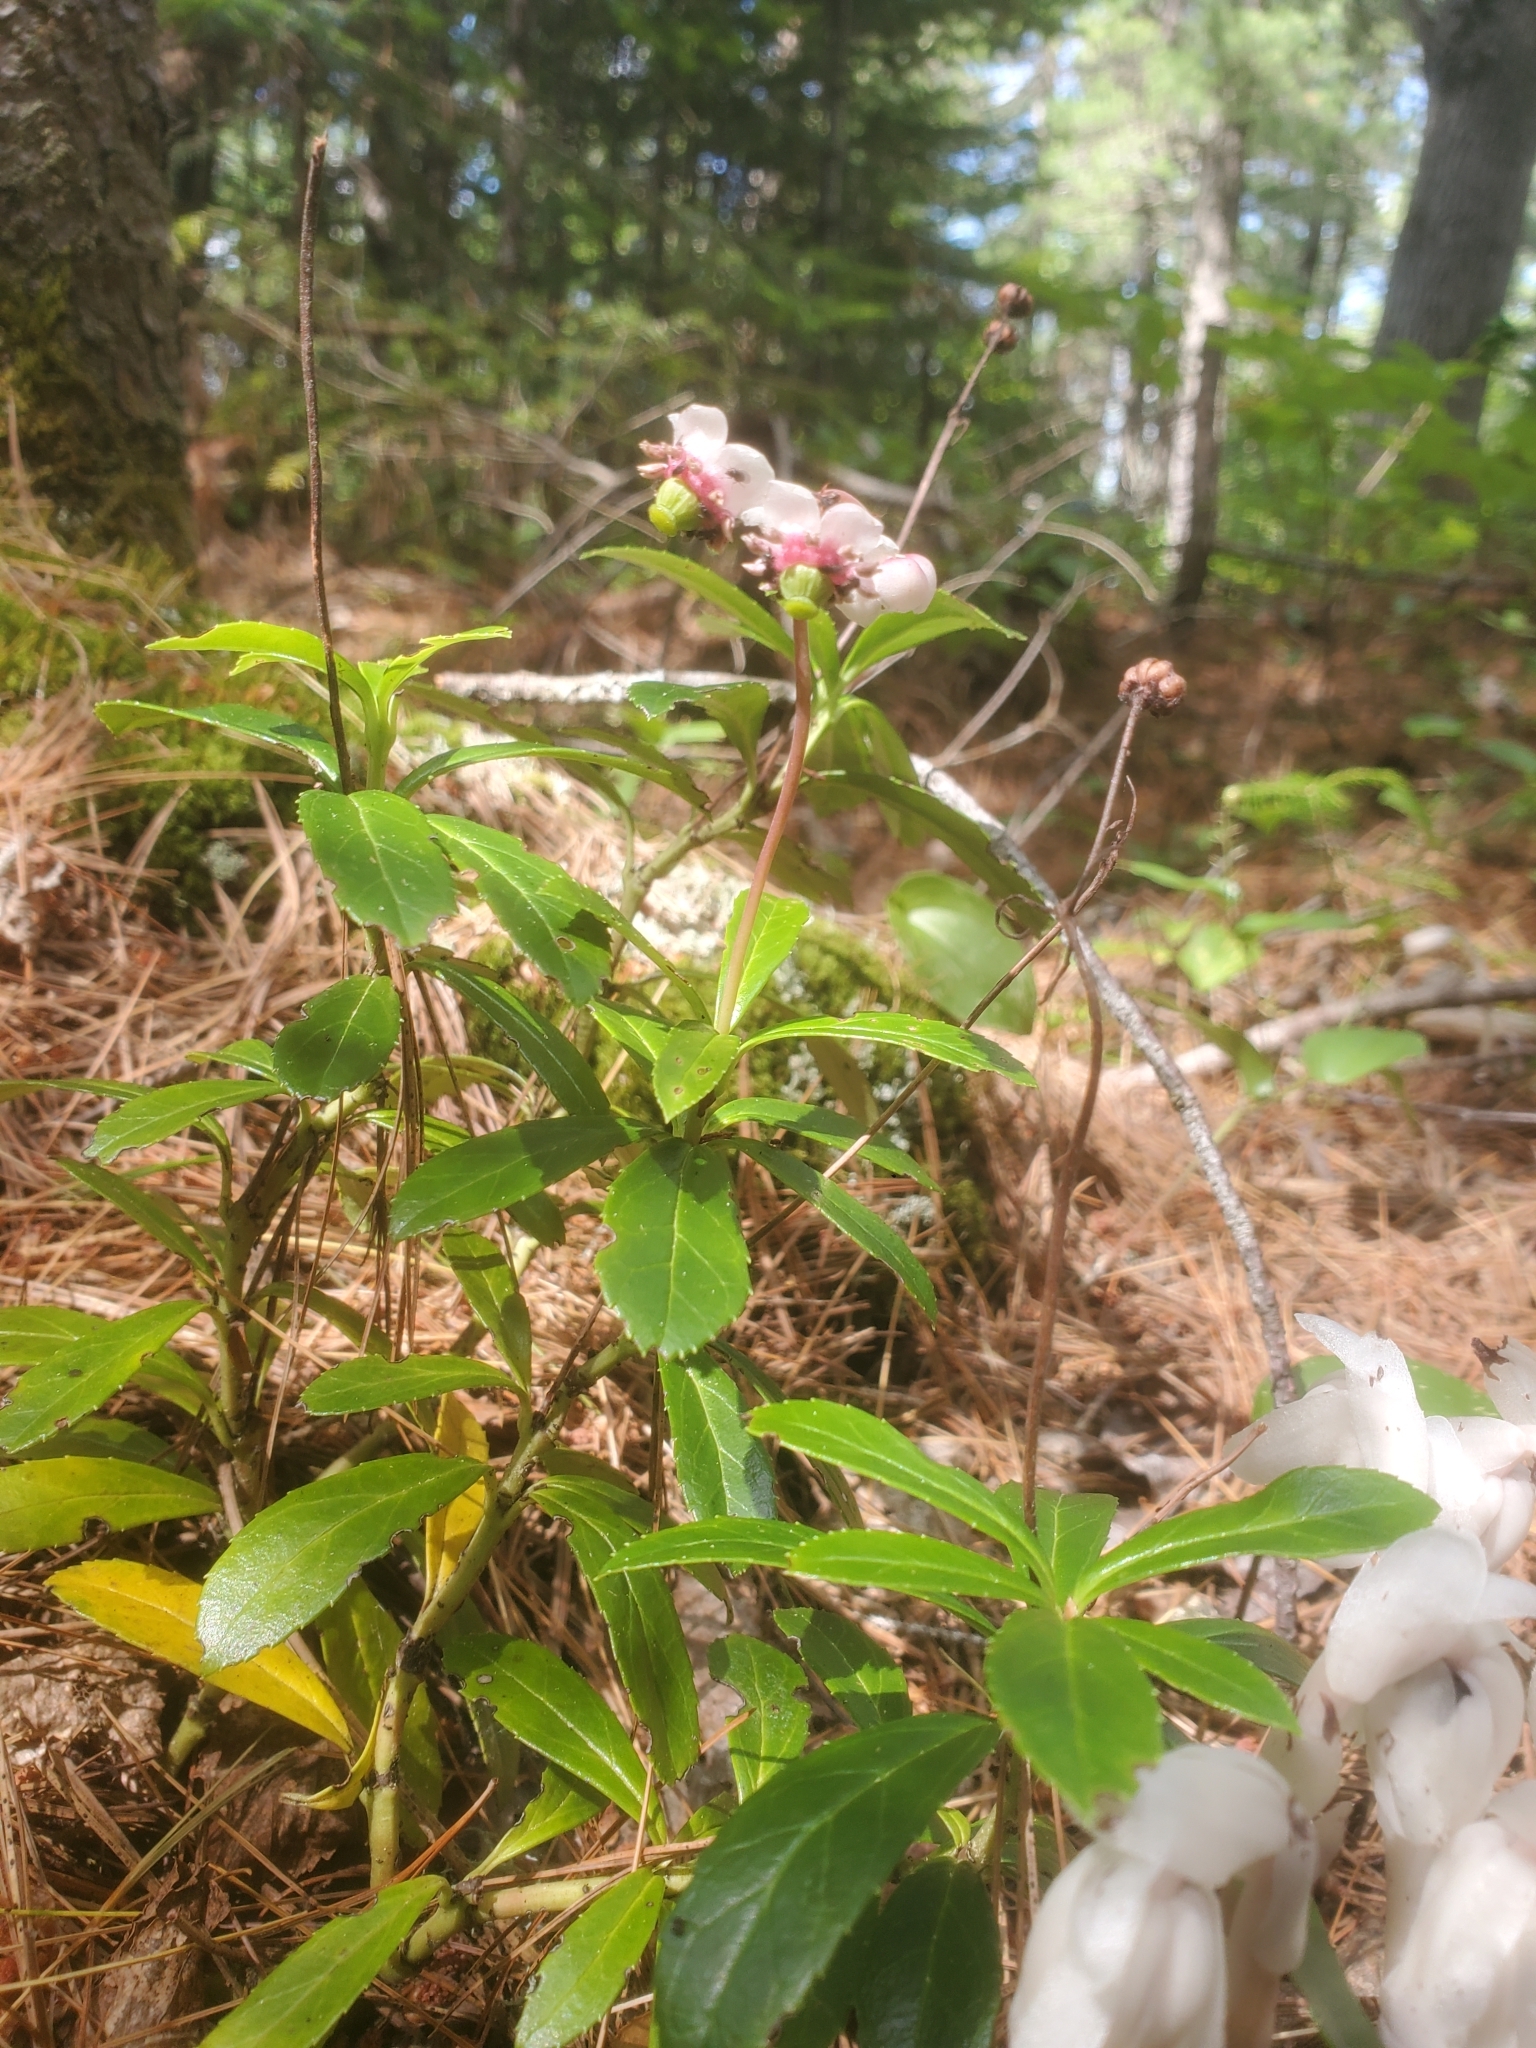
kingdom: Plantae
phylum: Tracheophyta
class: Magnoliopsida
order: Ericales
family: Ericaceae
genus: Chimaphila
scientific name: Chimaphila umbellata
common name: Pipsissewa
